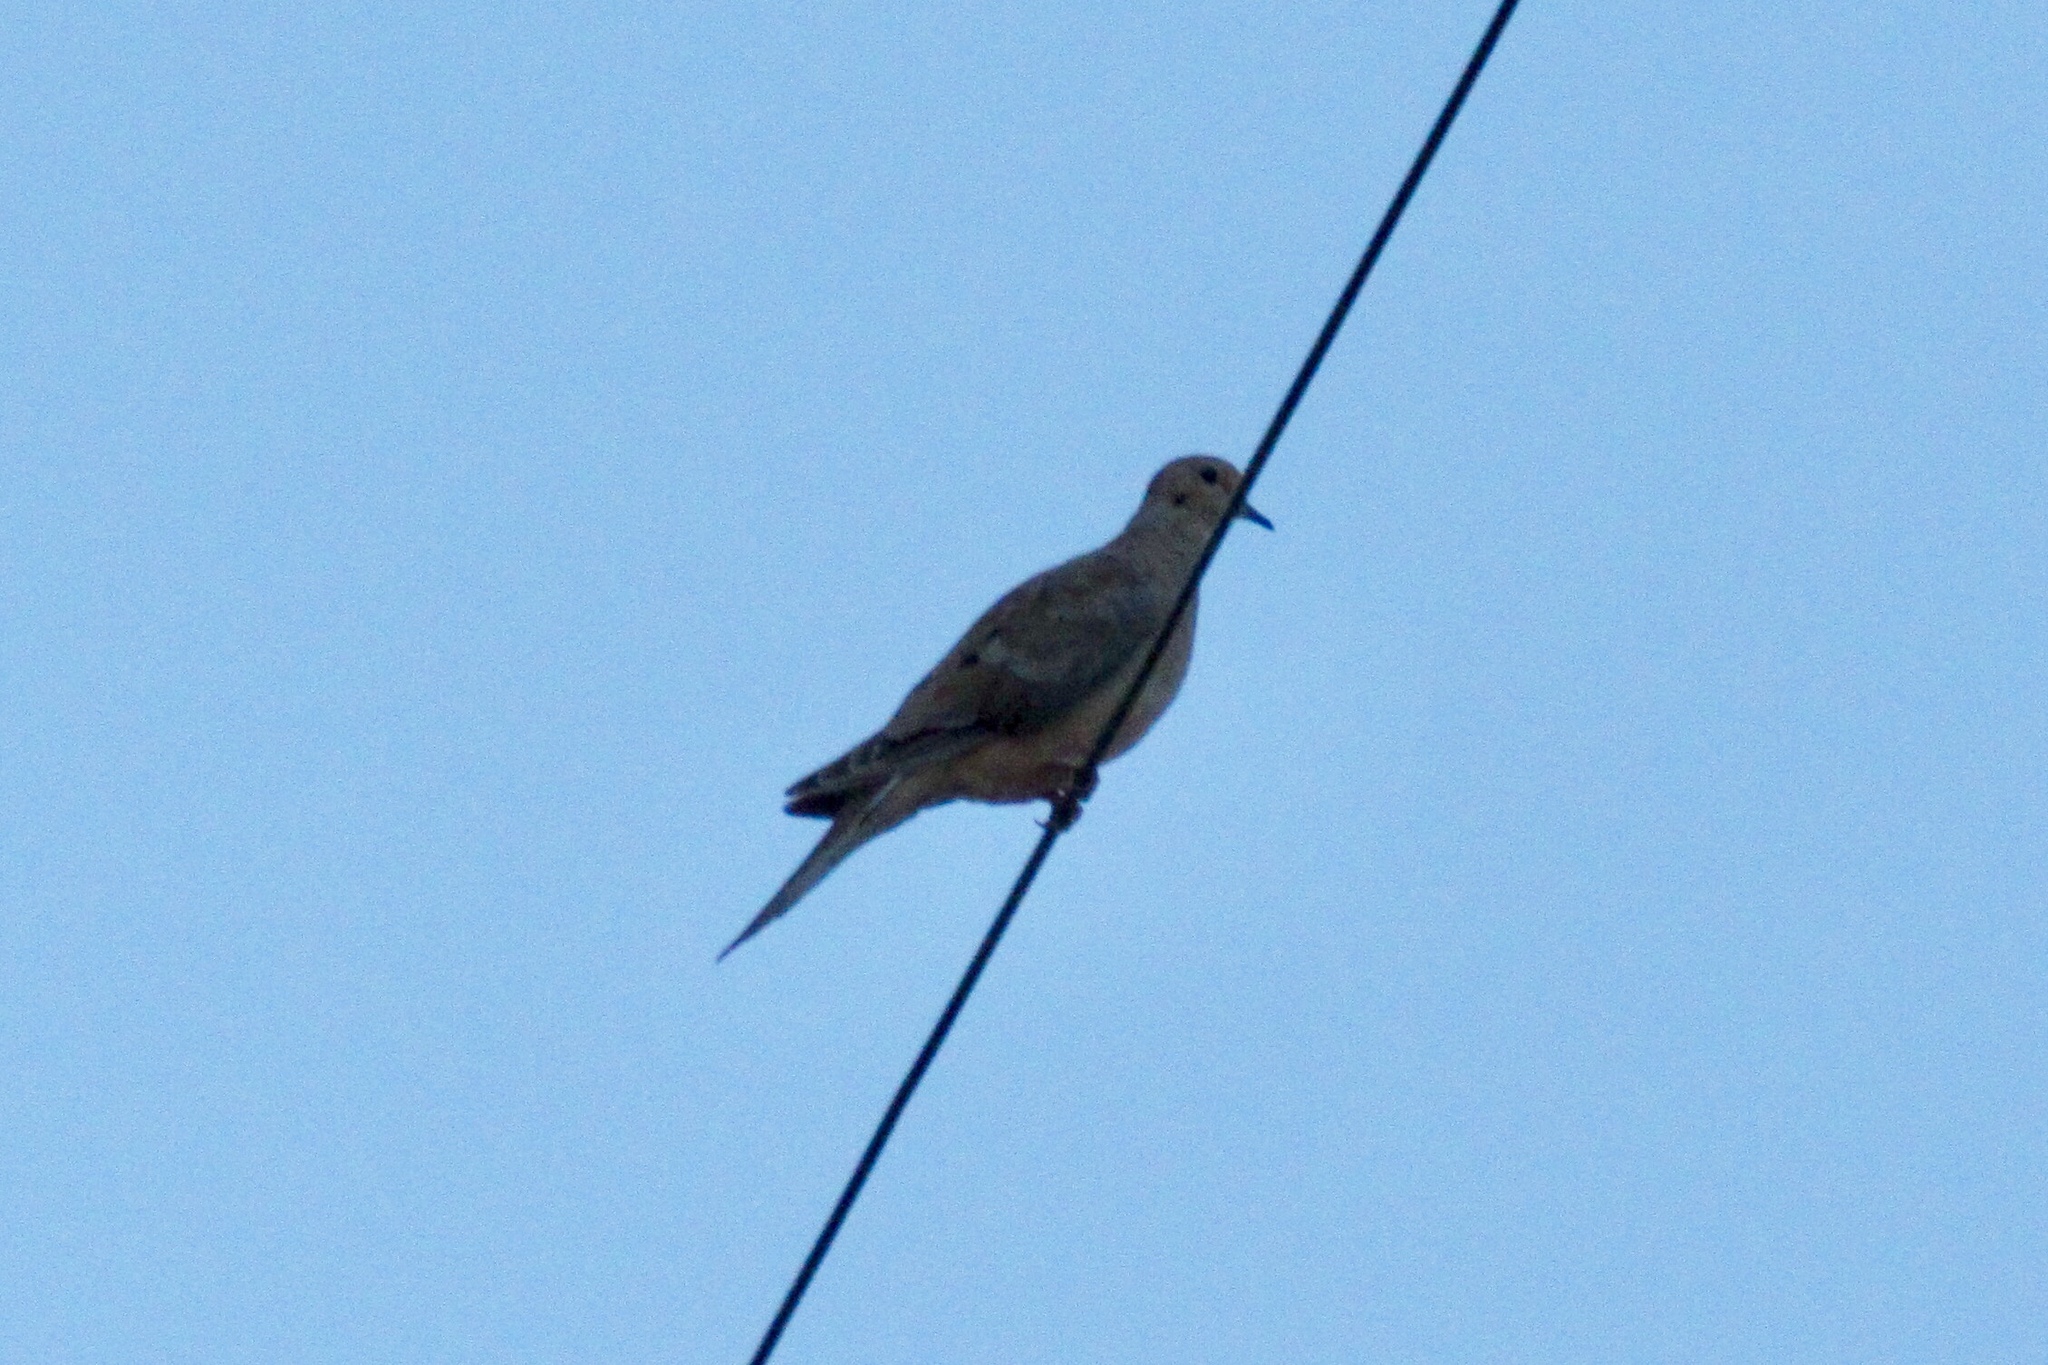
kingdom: Animalia
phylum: Chordata
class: Aves
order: Columbiformes
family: Columbidae
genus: Zenaida
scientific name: Zenaida macroura
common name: Mourning dove
